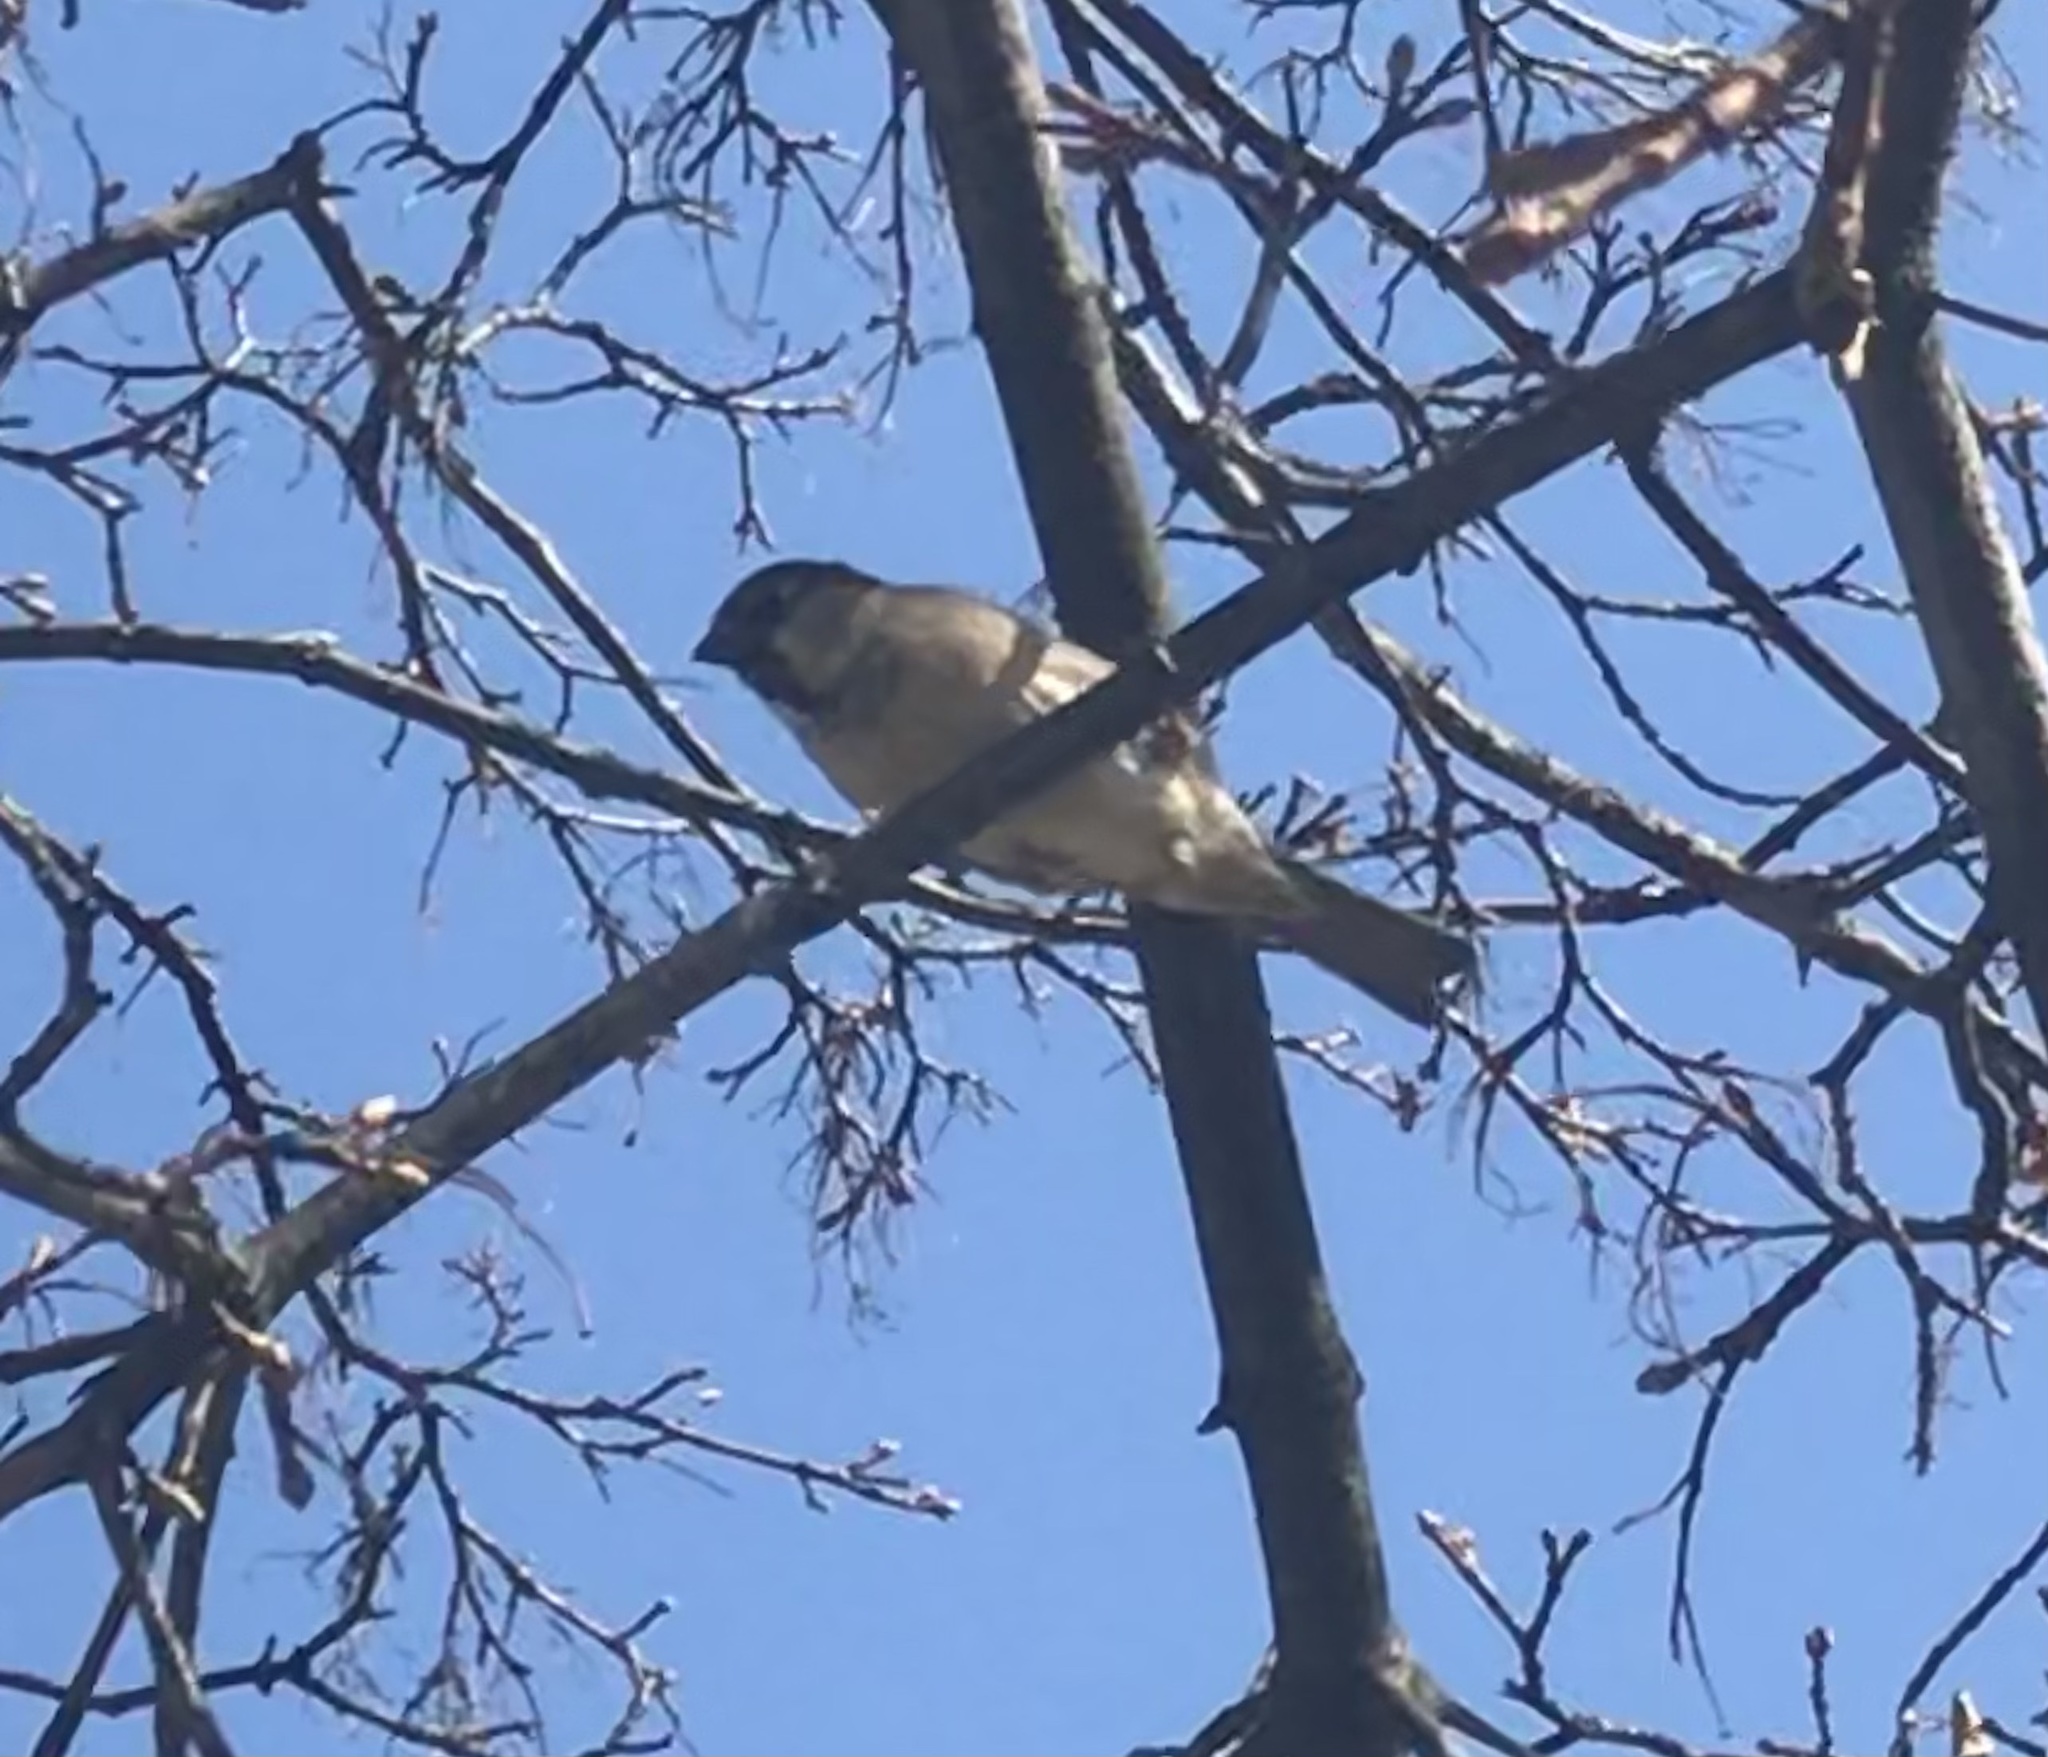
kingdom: Animalia
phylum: Chordata
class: Aves
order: Passeriformes
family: Passeridae
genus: Passer
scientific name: Passer domesticus
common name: House sparrow
